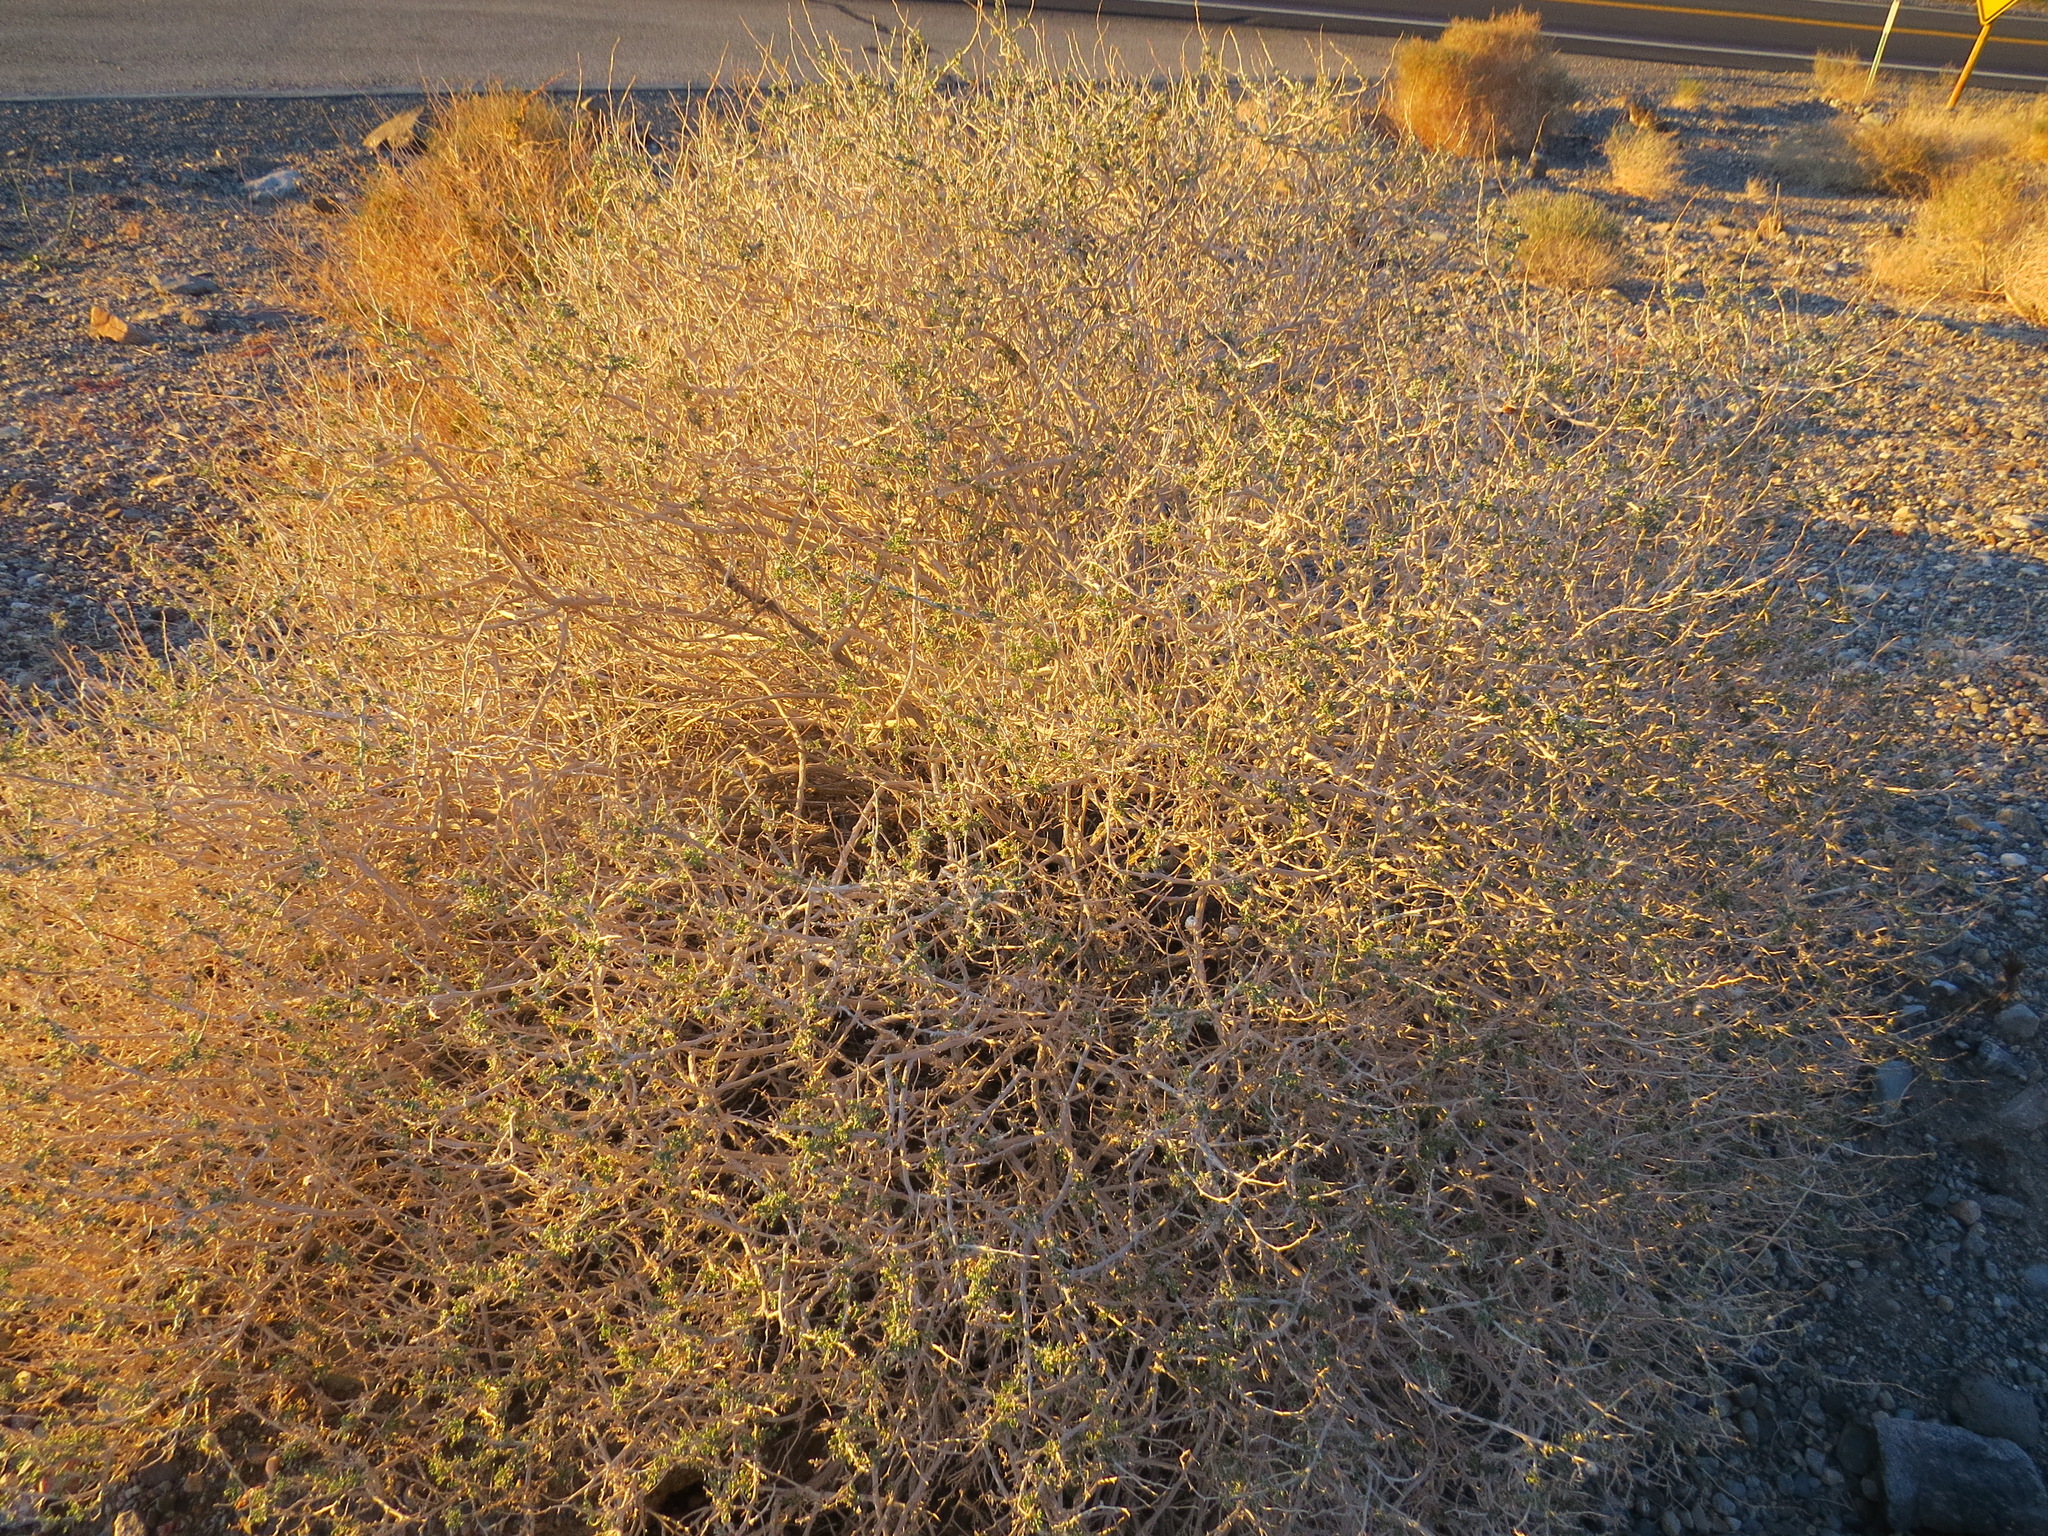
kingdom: Plantae
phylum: Tracheophyta
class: Magnoliopsida
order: Asterales
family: Asteraceae
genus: Ambrosia
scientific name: Ambrosia dumosa
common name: Bur-sage
